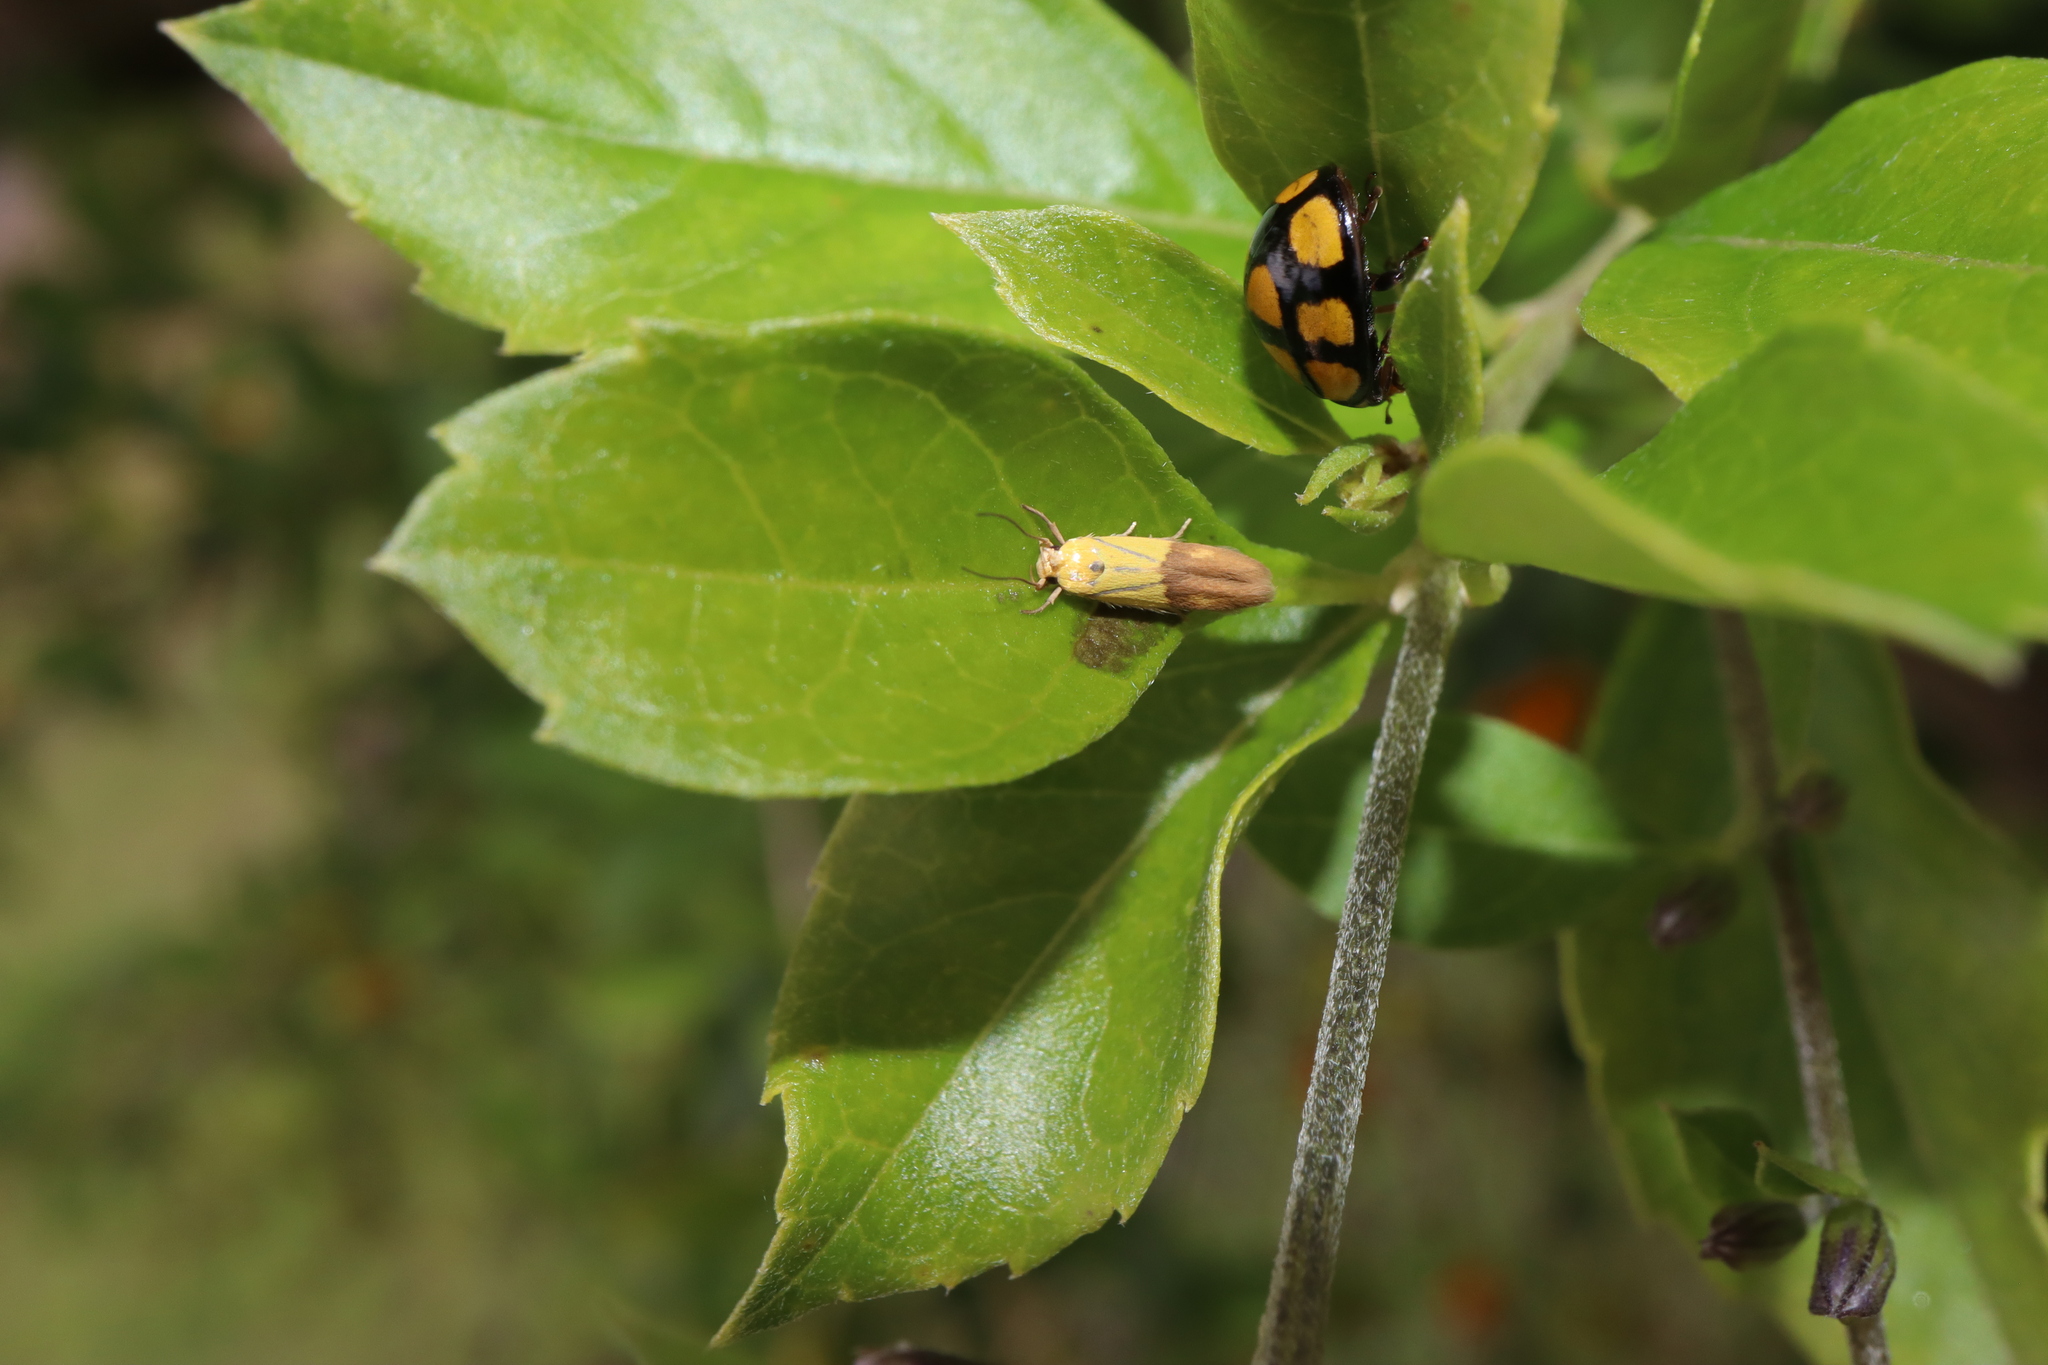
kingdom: Animalia
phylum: Arthropoda
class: Insecta
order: Lepidoptera
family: Stathmopodidae
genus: Stathmopoda
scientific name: Stathmopoda auriferella
